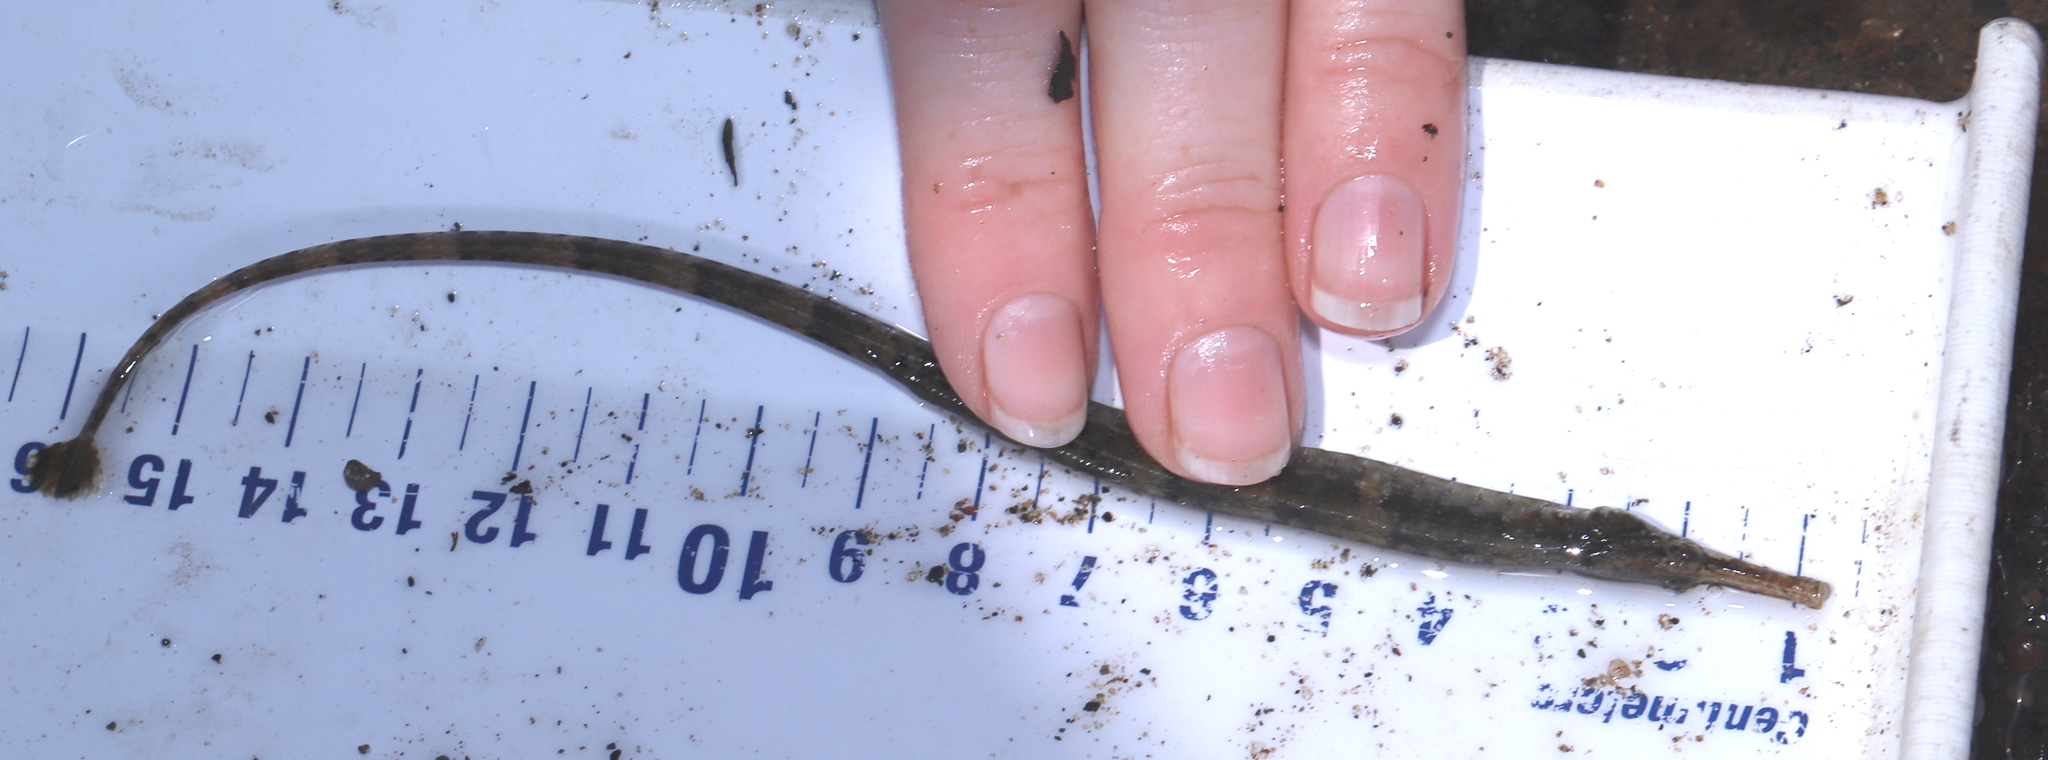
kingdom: Animalia
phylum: Chordata
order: Syngnathiformes
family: Syngnathidae
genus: Syngnathus
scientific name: Syngnathus fuscus
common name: Northern pipefish
